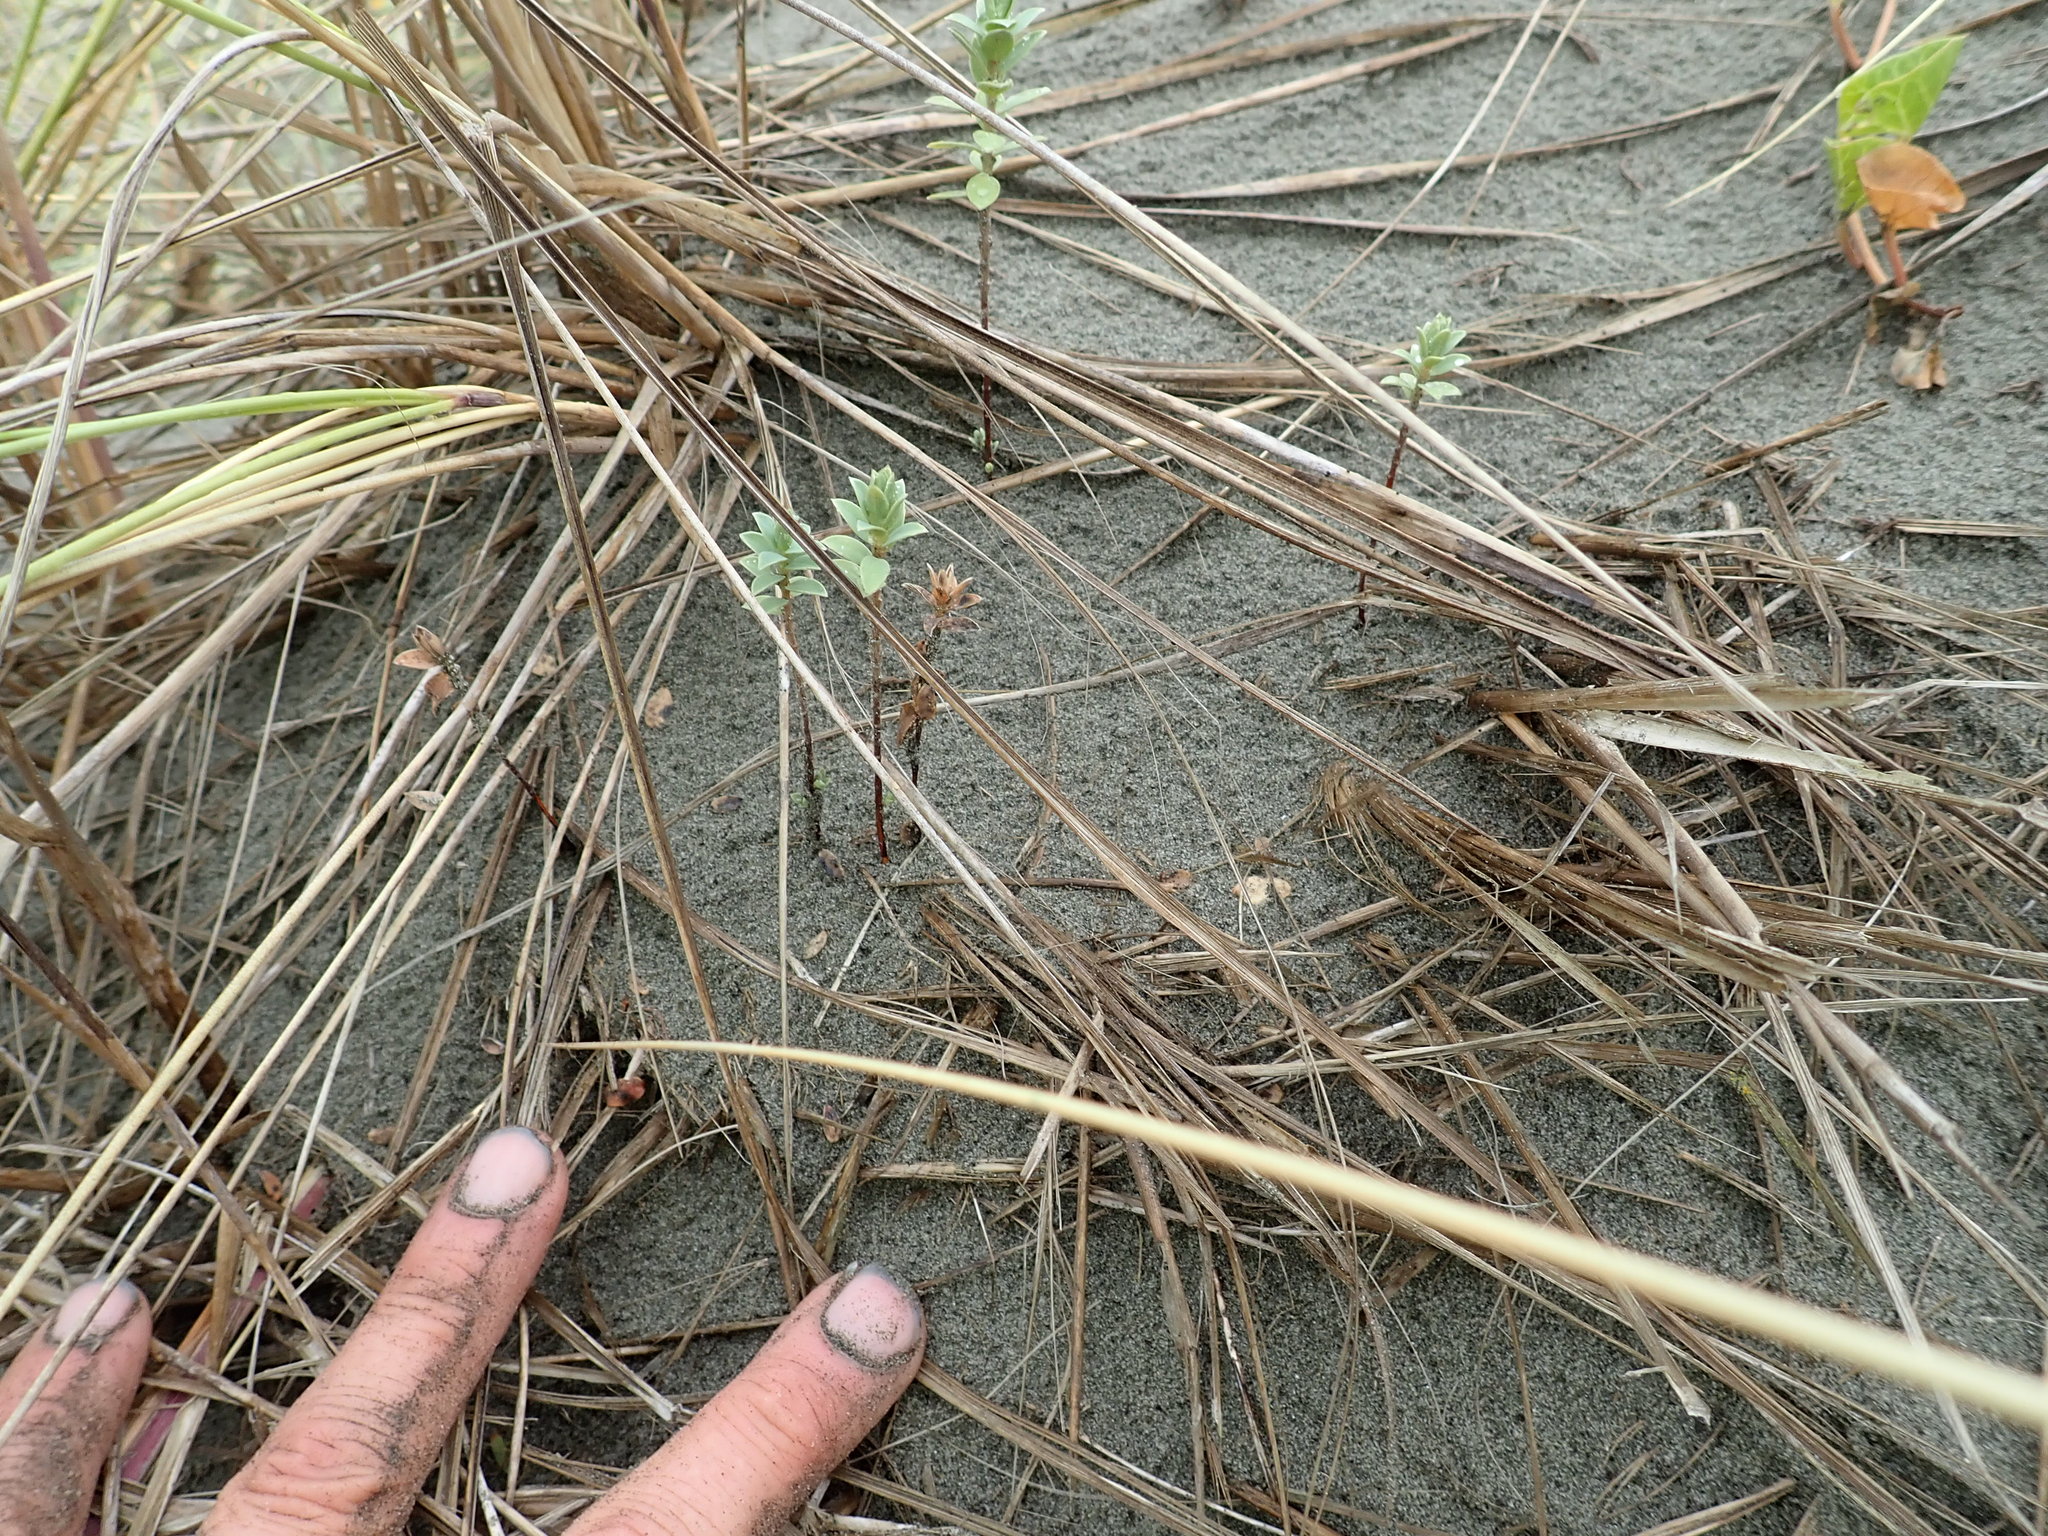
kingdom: Plantae
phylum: Tracheophyta
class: Magnoliopsida
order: Malvales
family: Thymelaeaceae
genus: Pimelea
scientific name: Pimelea villosa
